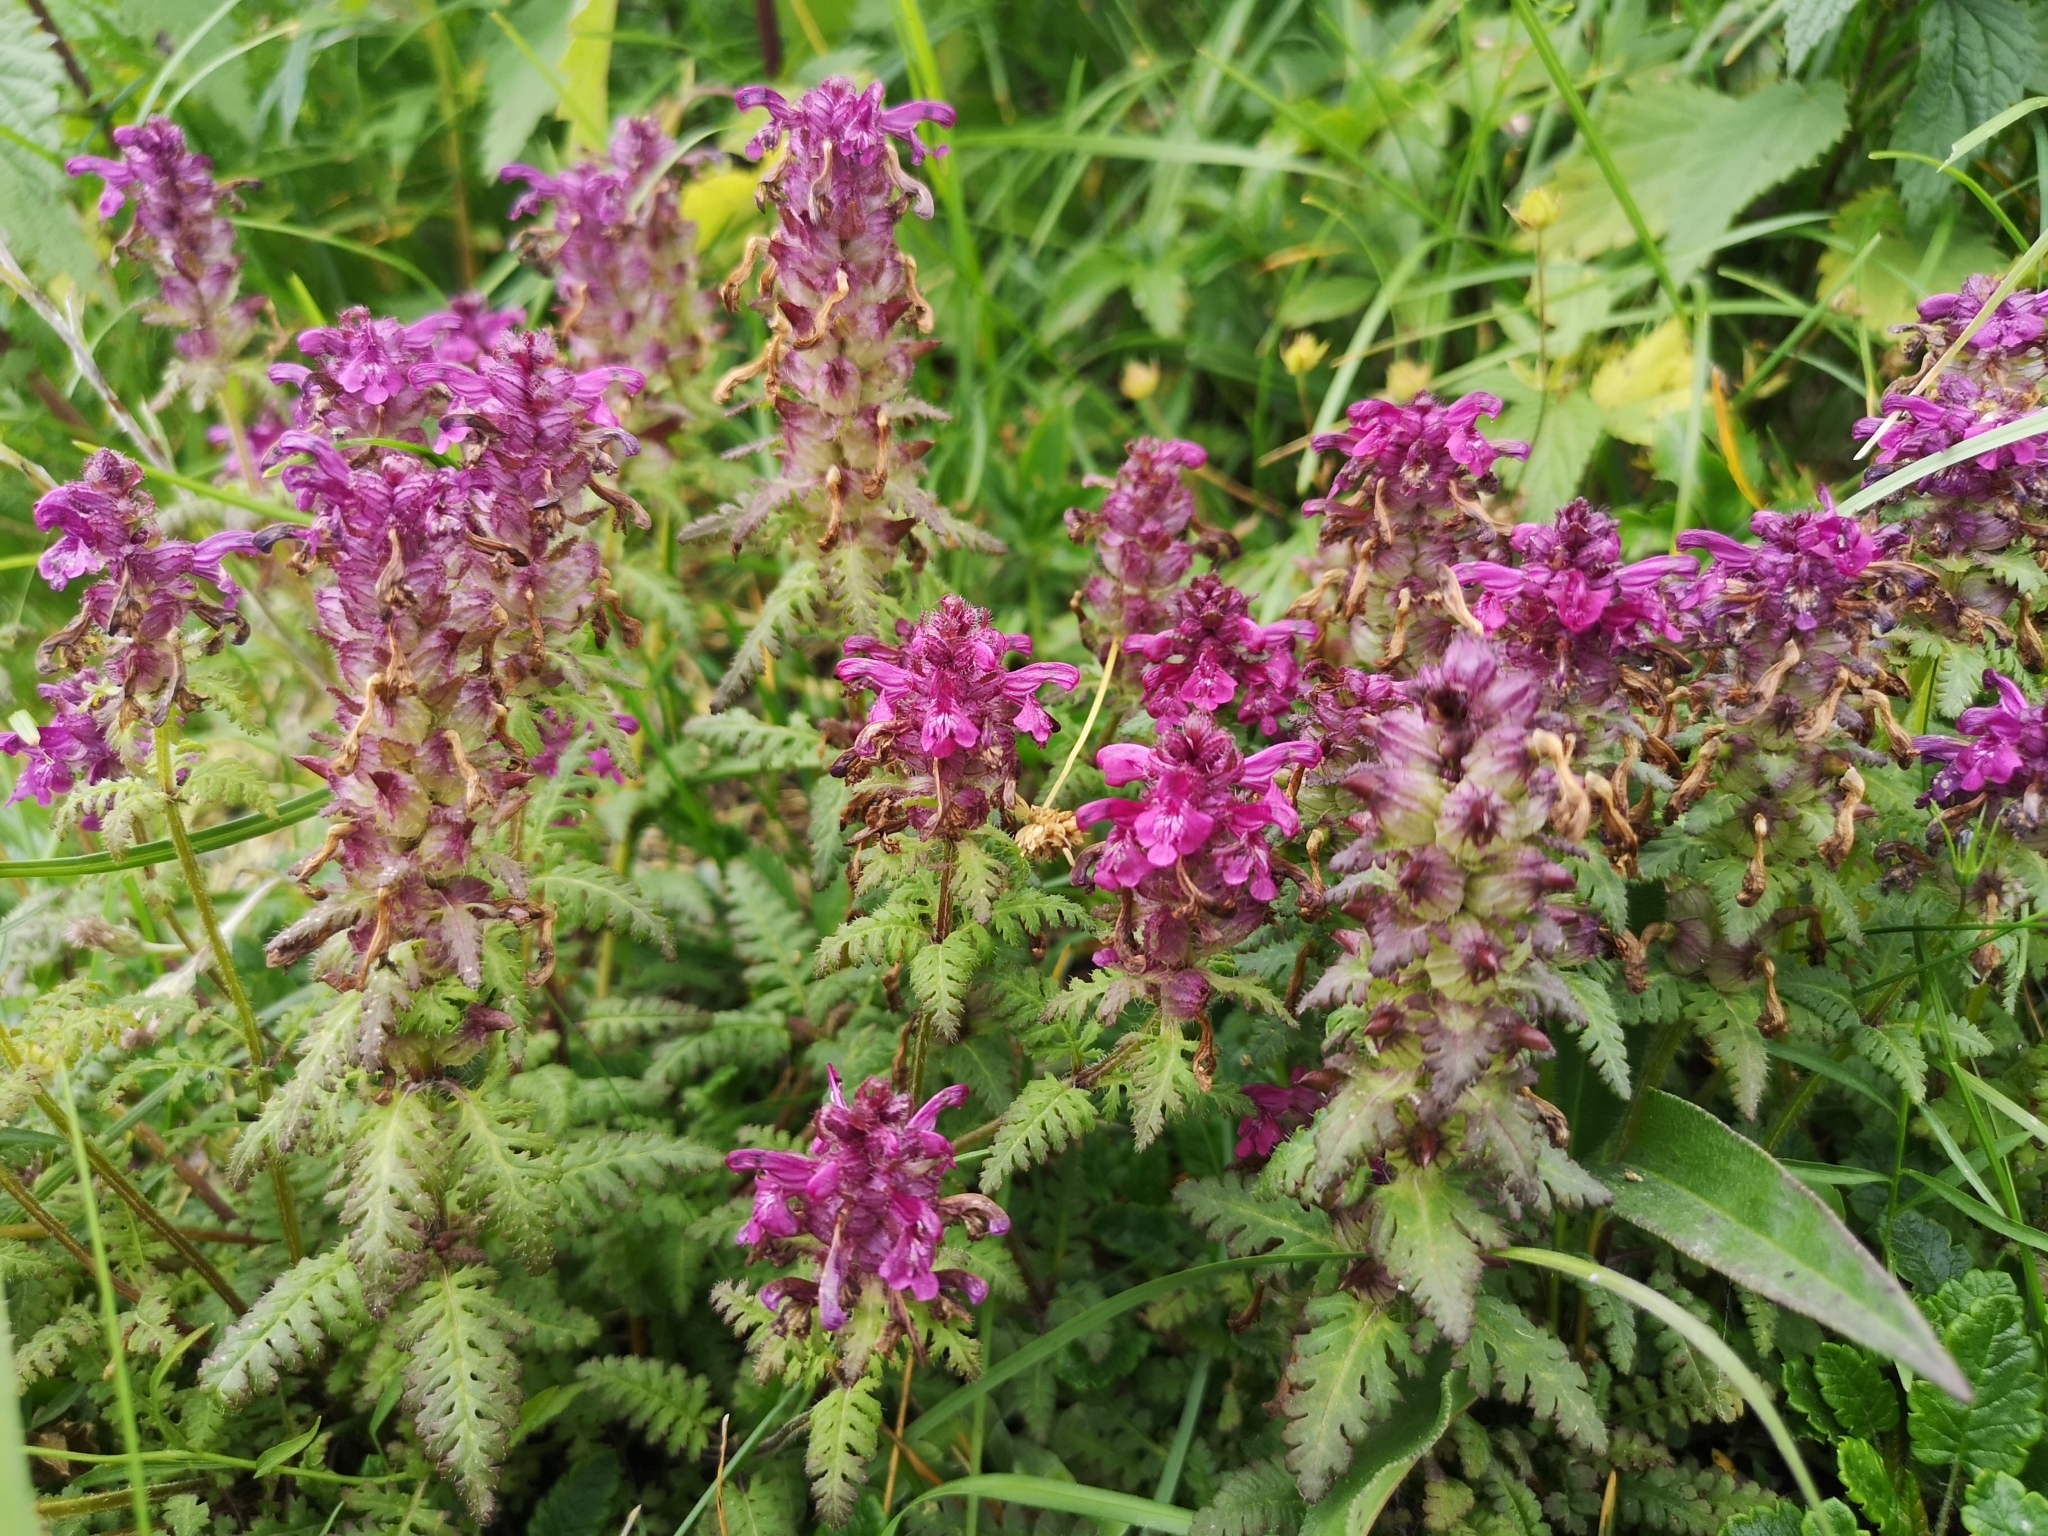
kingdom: Plantae
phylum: Tracheophyta
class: Magnoliopsida
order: Lamiales
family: Orobanchaceae
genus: Pedicularis
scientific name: Pedicularis verticillata
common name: Whorled lousewort
